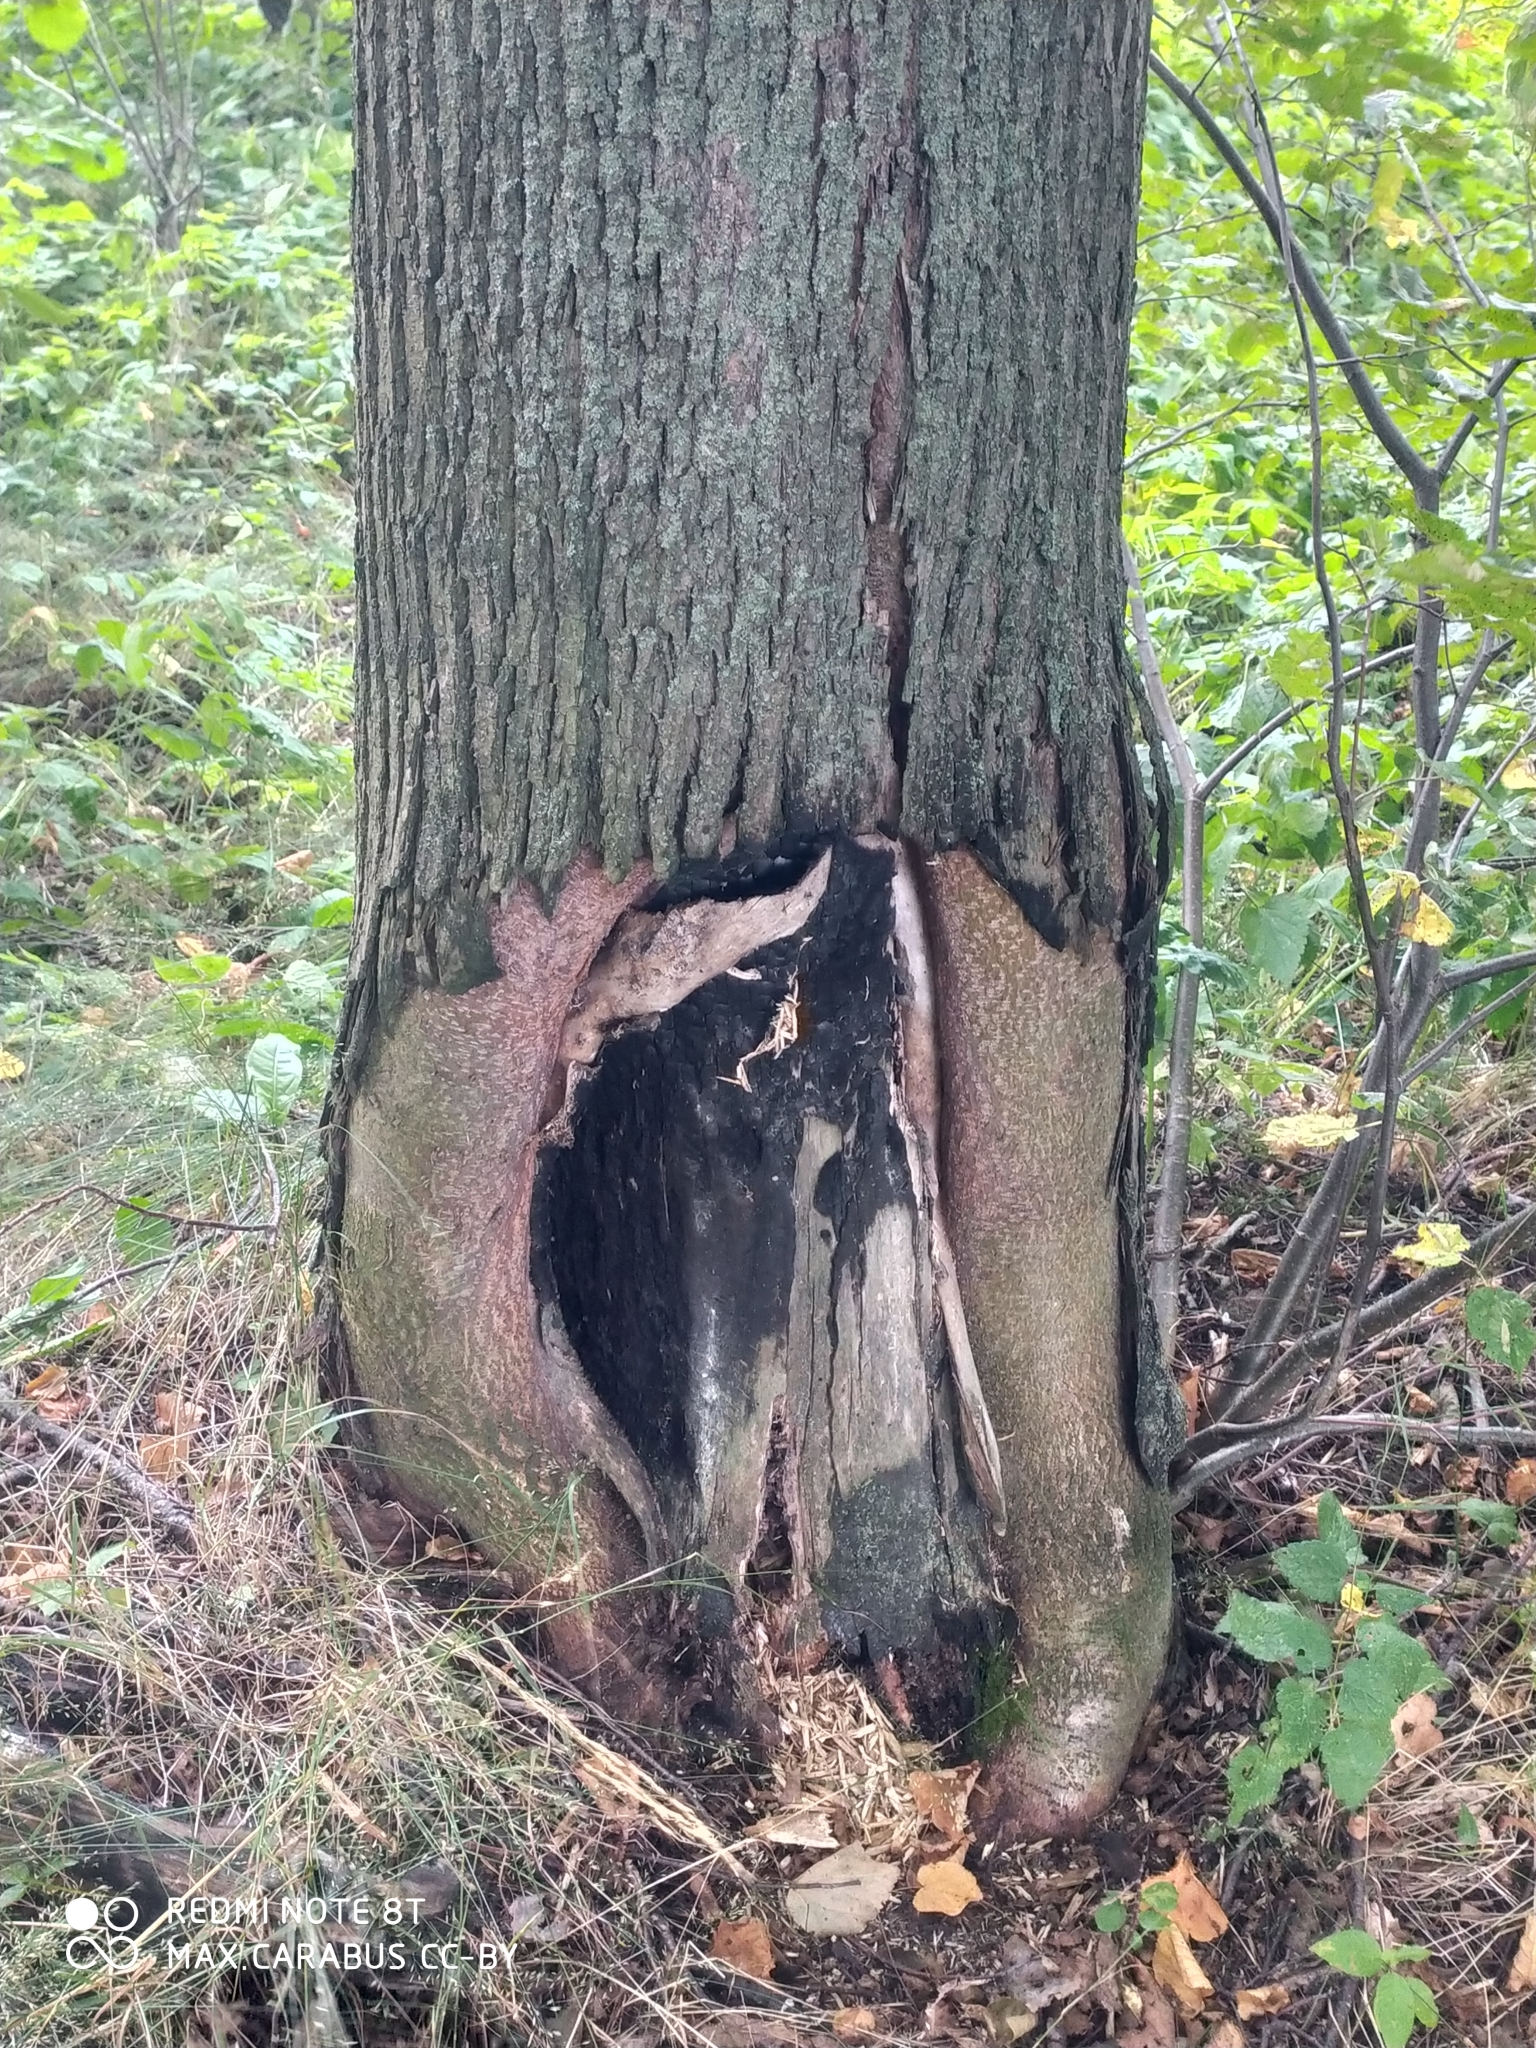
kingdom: Plantae
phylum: Tracheophyta
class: Magnoliopsida
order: Malvales
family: Malvaceae
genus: Tilia
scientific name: Tilia cordata
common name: Small-leaved lime
